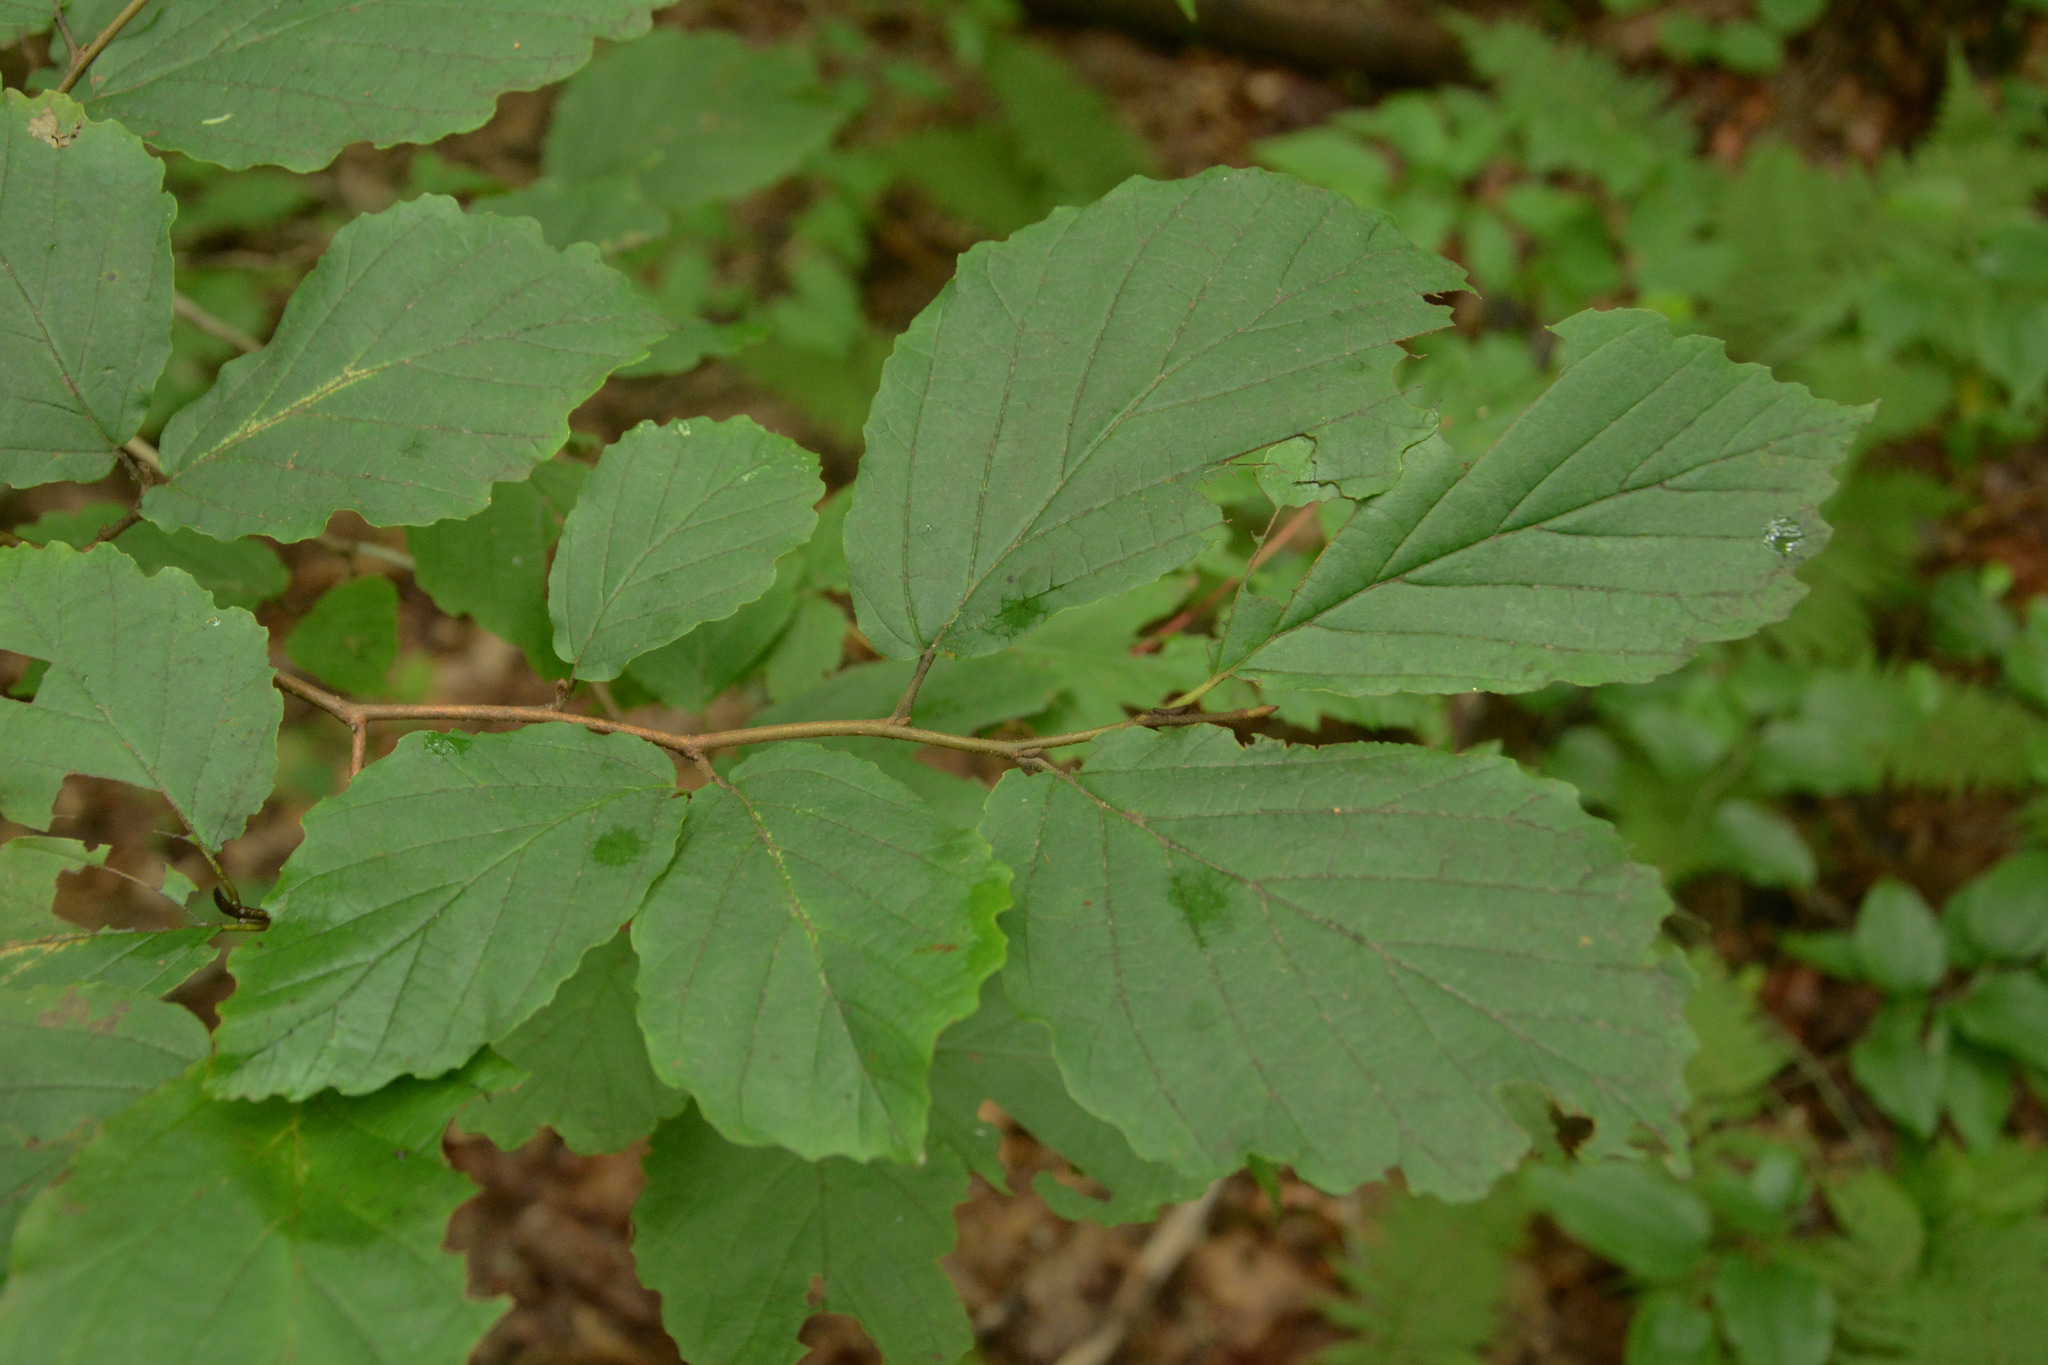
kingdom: Plantae
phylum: Tracheophyta
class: Magnoliopsida
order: Saxifragales
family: Hamamelidaceae
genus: Hamamelis
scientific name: Hamamelis virginiana
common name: Witch-hazel
